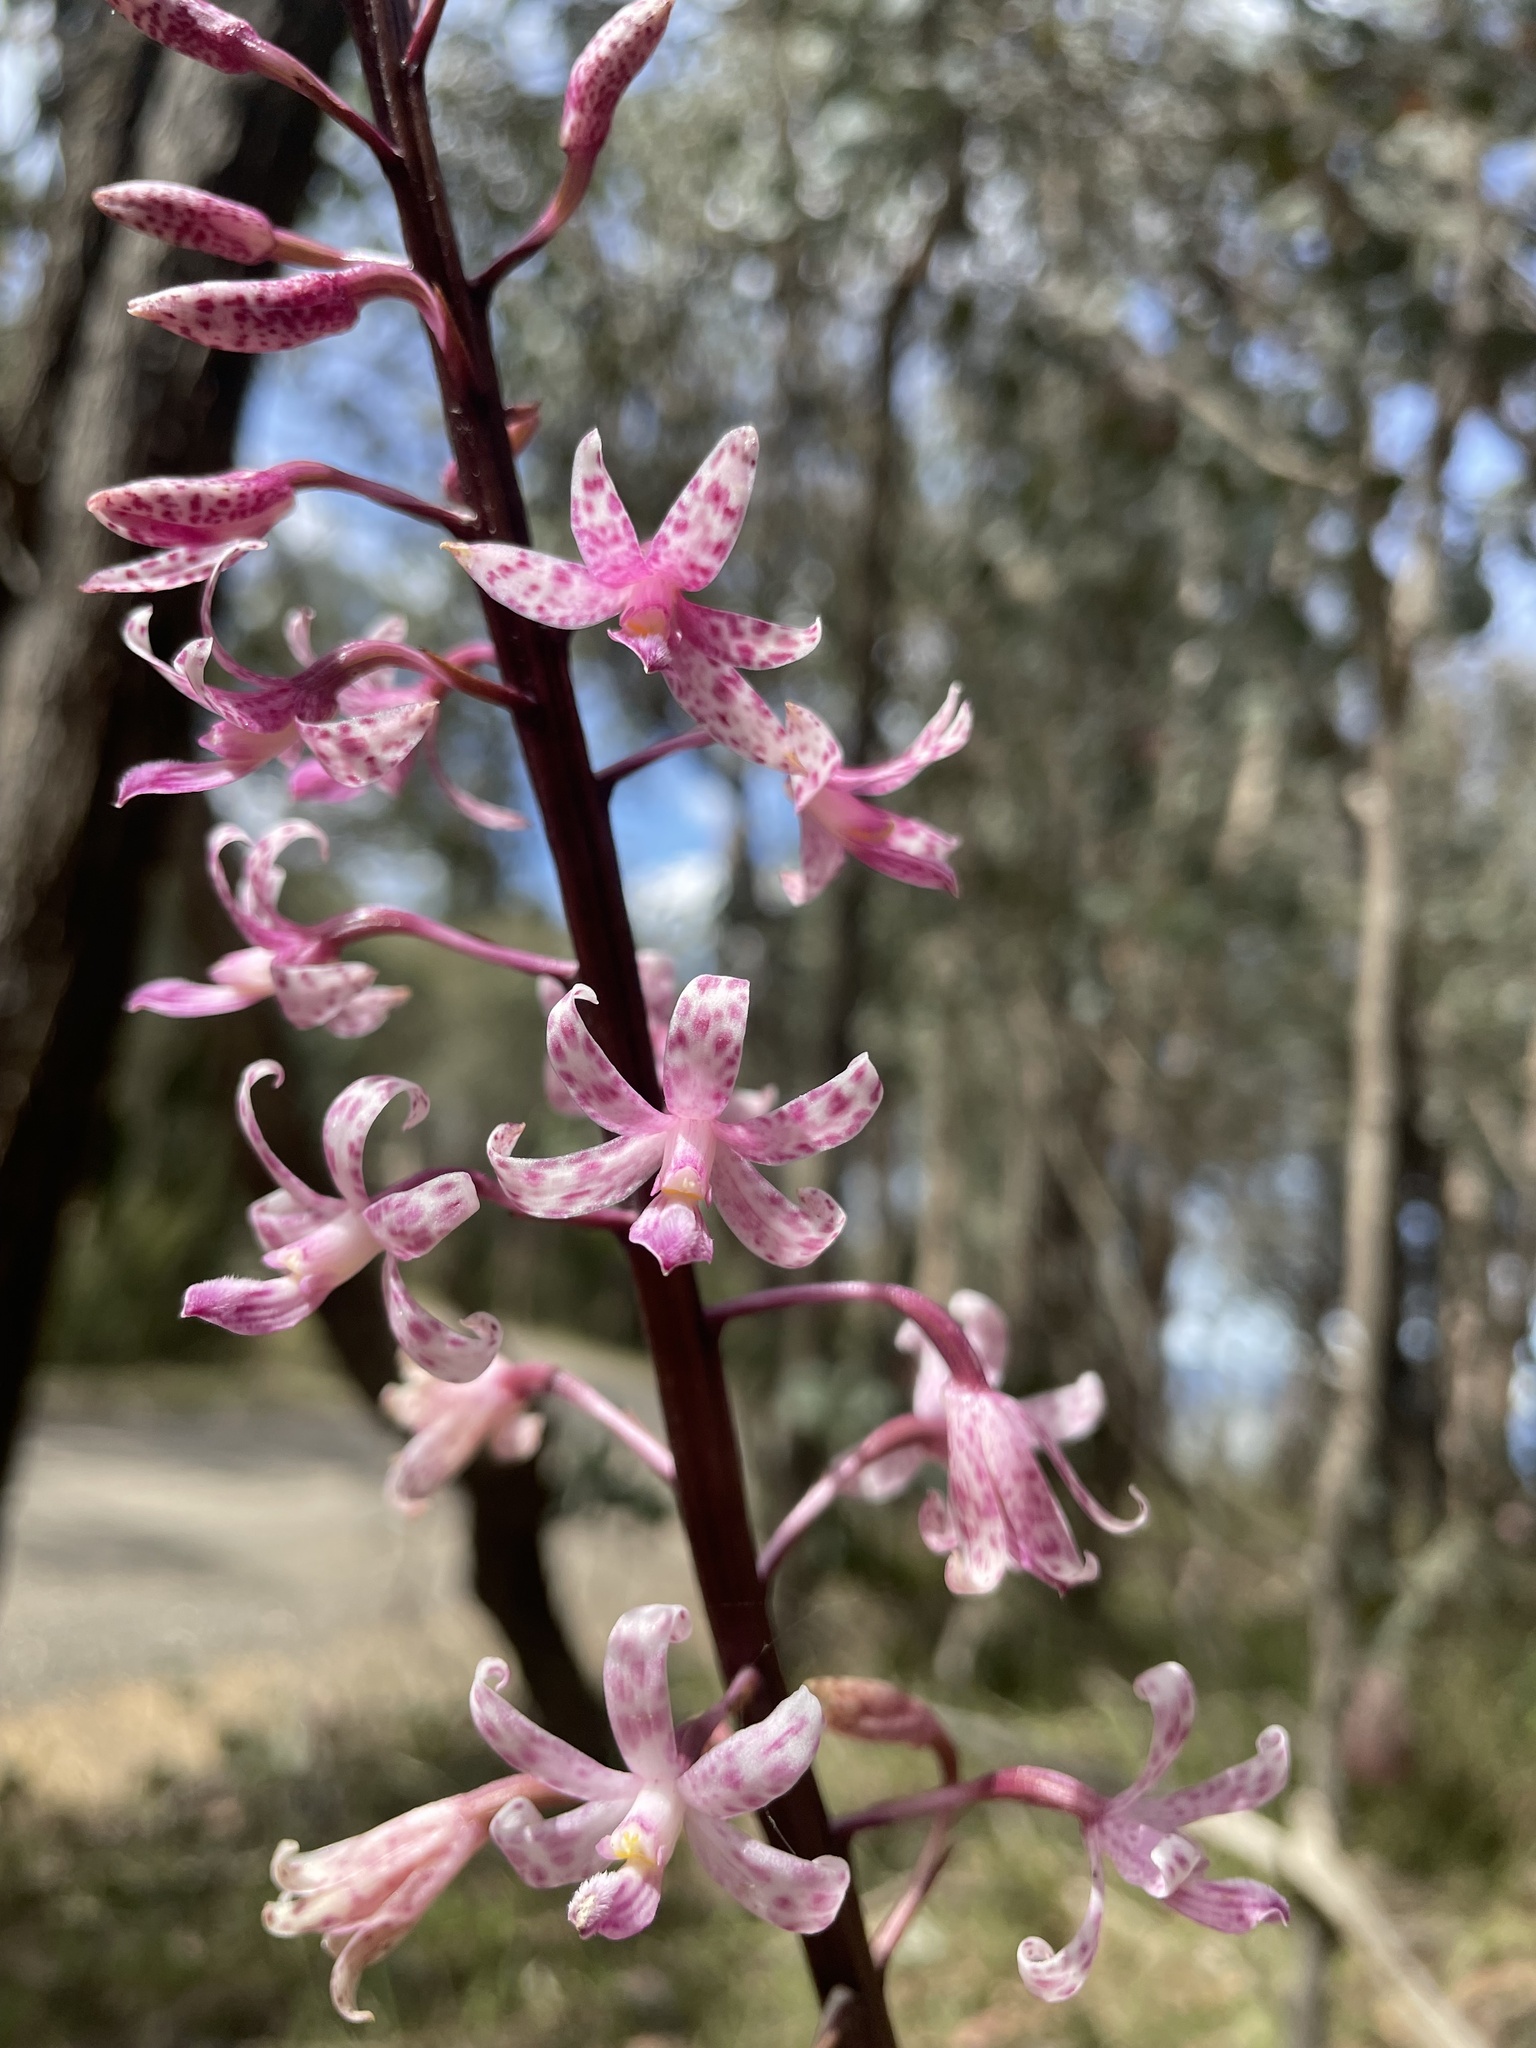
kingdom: Plantae
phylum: Tracheophyta
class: Liliopsida
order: Asparagales
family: Orchidaceae
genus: Dipodium
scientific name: Dipodium roseum
